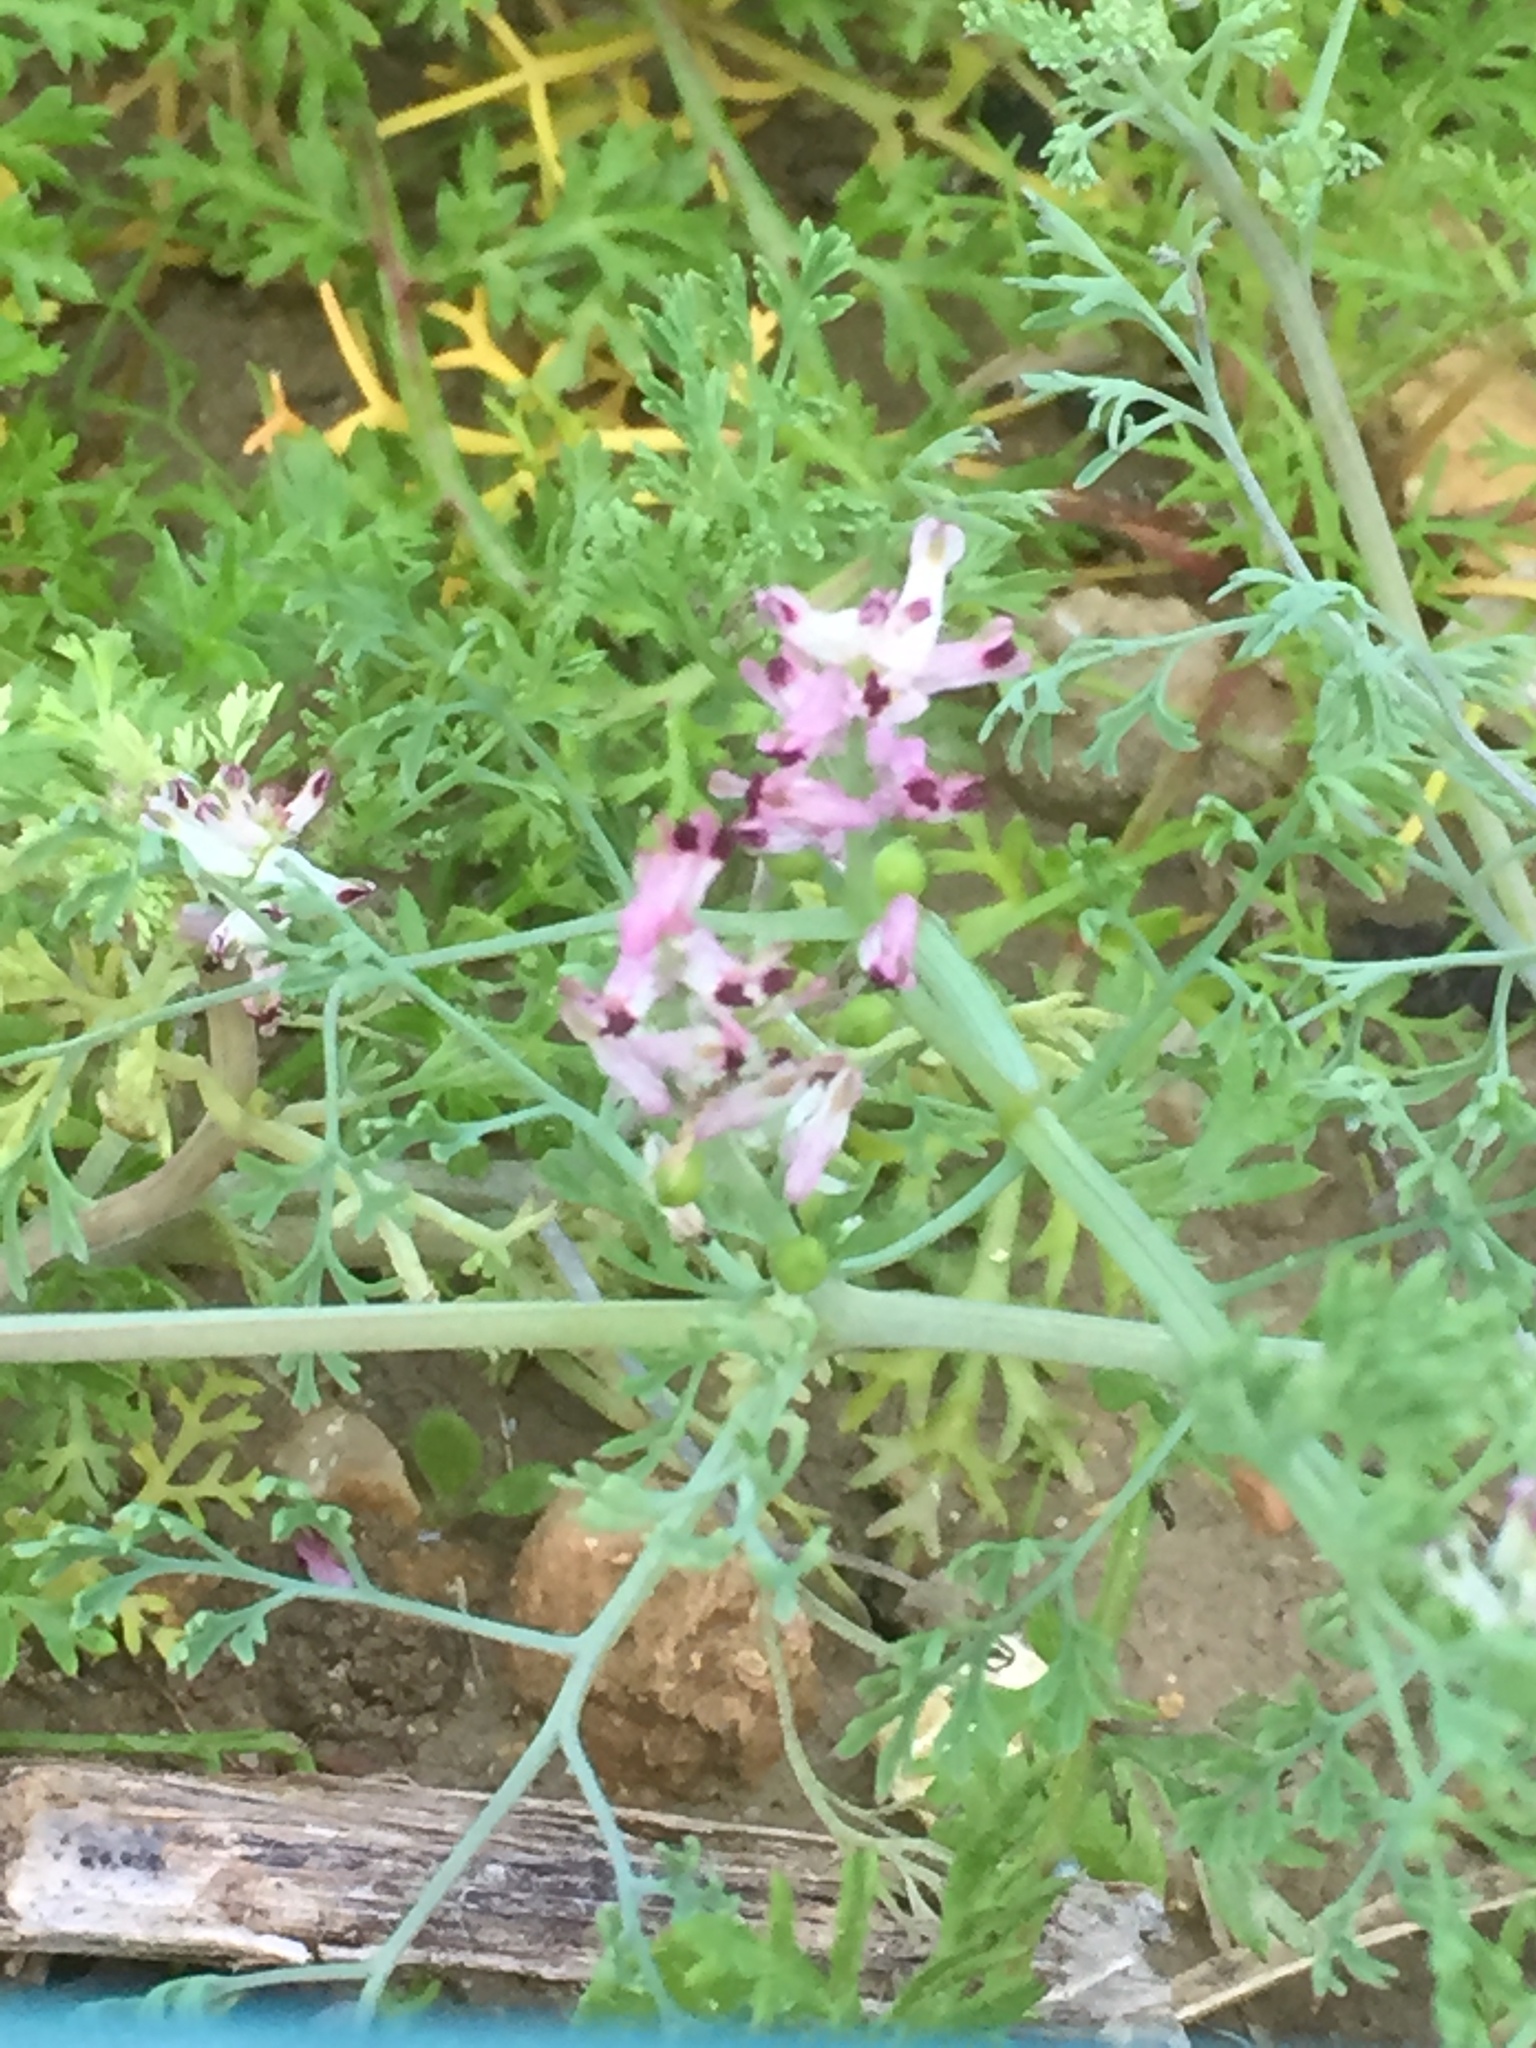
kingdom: Plantae
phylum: Tracheophyta
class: Magnoliopsida
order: Ranunculales
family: Papaveraceae
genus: Fumaria
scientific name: Fumaria parviflora
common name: Fine-leaved fumitory
